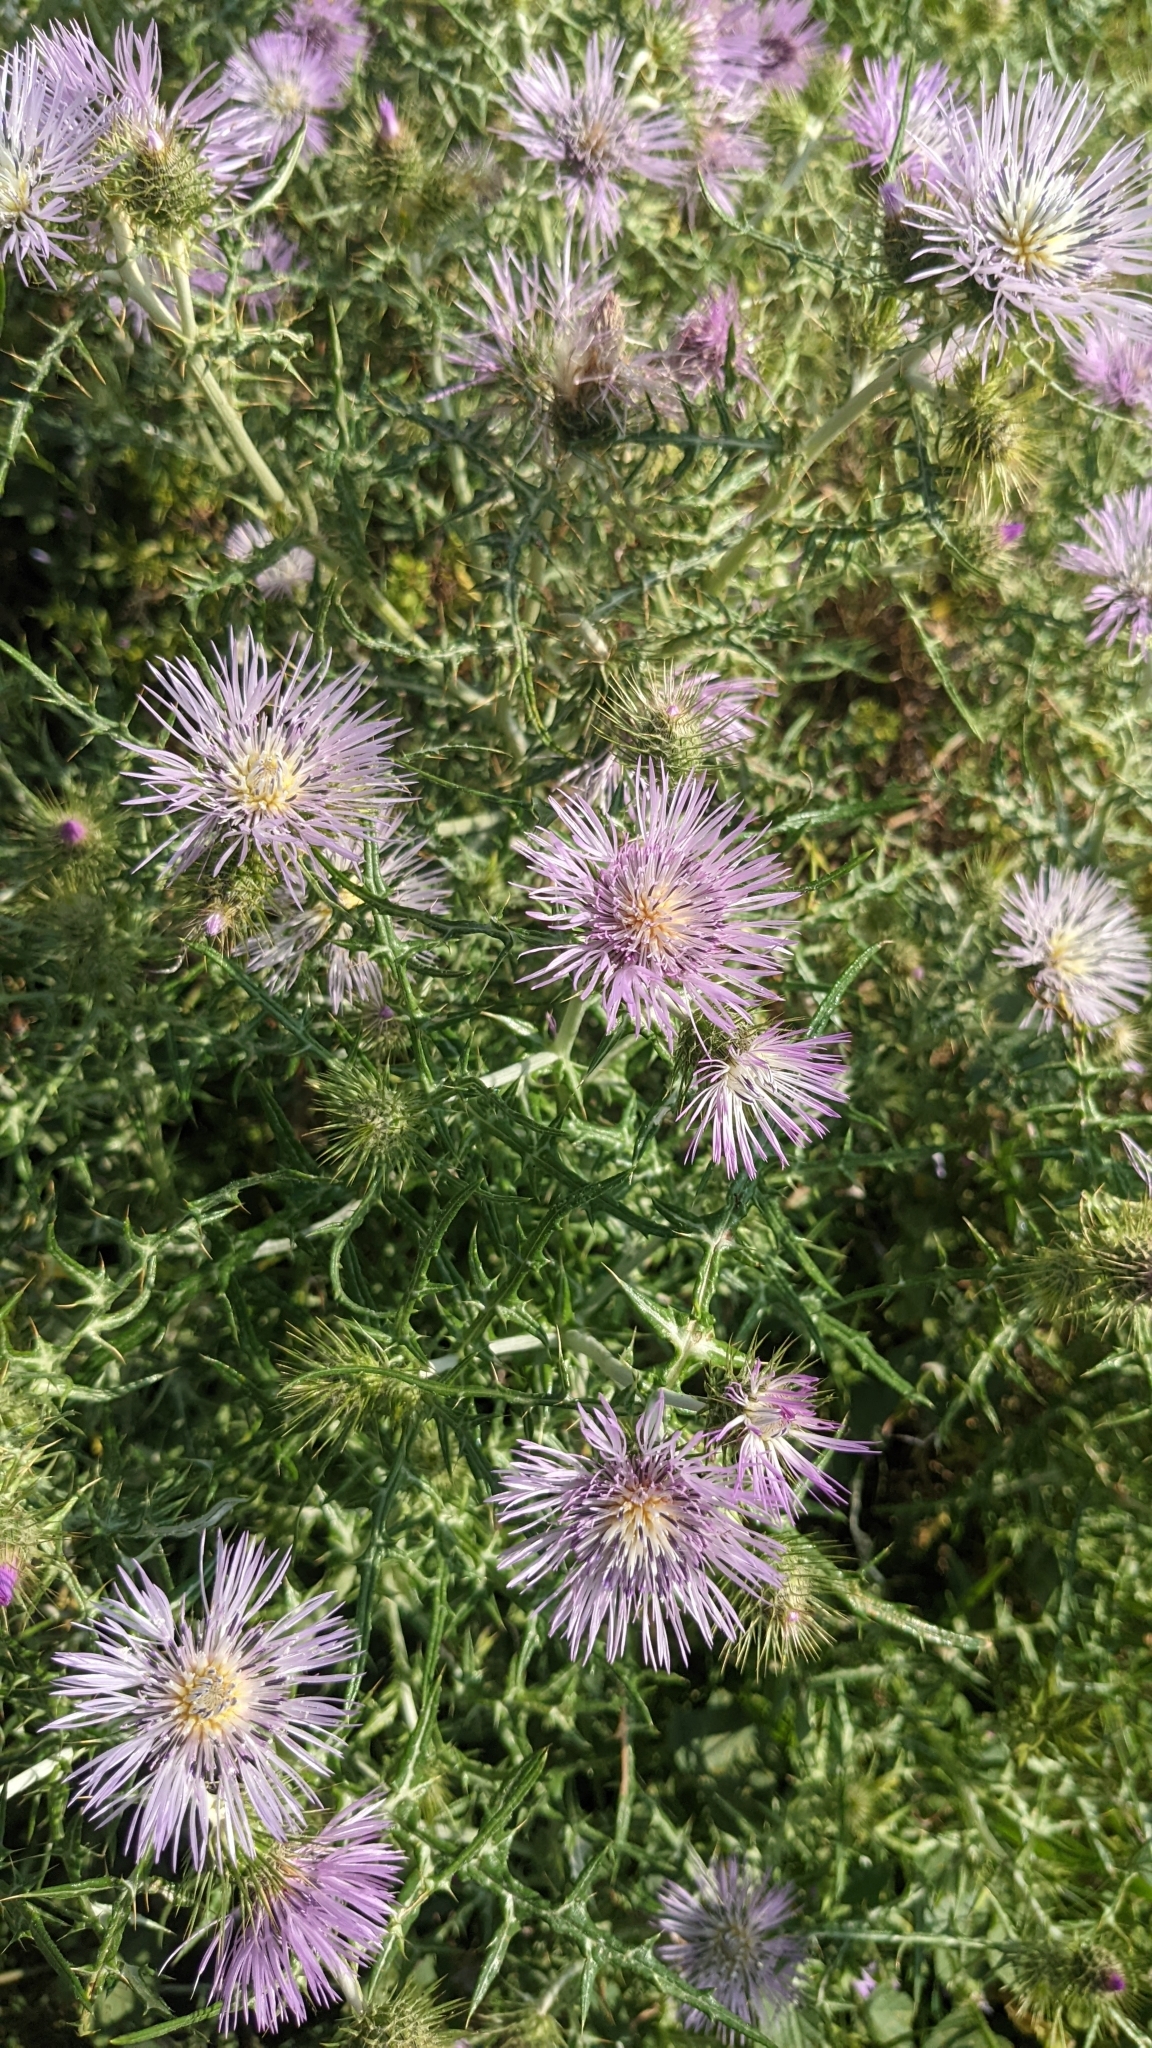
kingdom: Plantae
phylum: Tracheophyta
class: Magnoliopsida
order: Asterales
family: Asteraceae
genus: Galactites
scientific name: Galactites tomentosa
